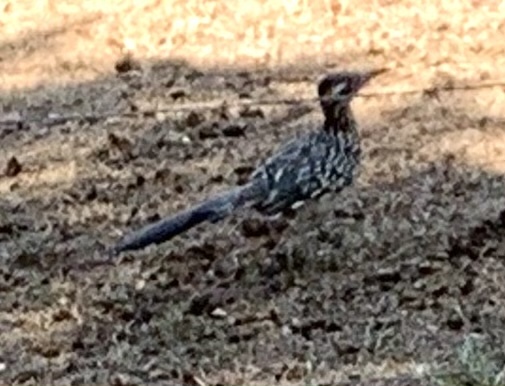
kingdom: Animalia
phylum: Chordata
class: Aves
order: Cuculiformes
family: Cuculidae
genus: Geococcyx
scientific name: Geococcyx californianus
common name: Greater roadrunner
